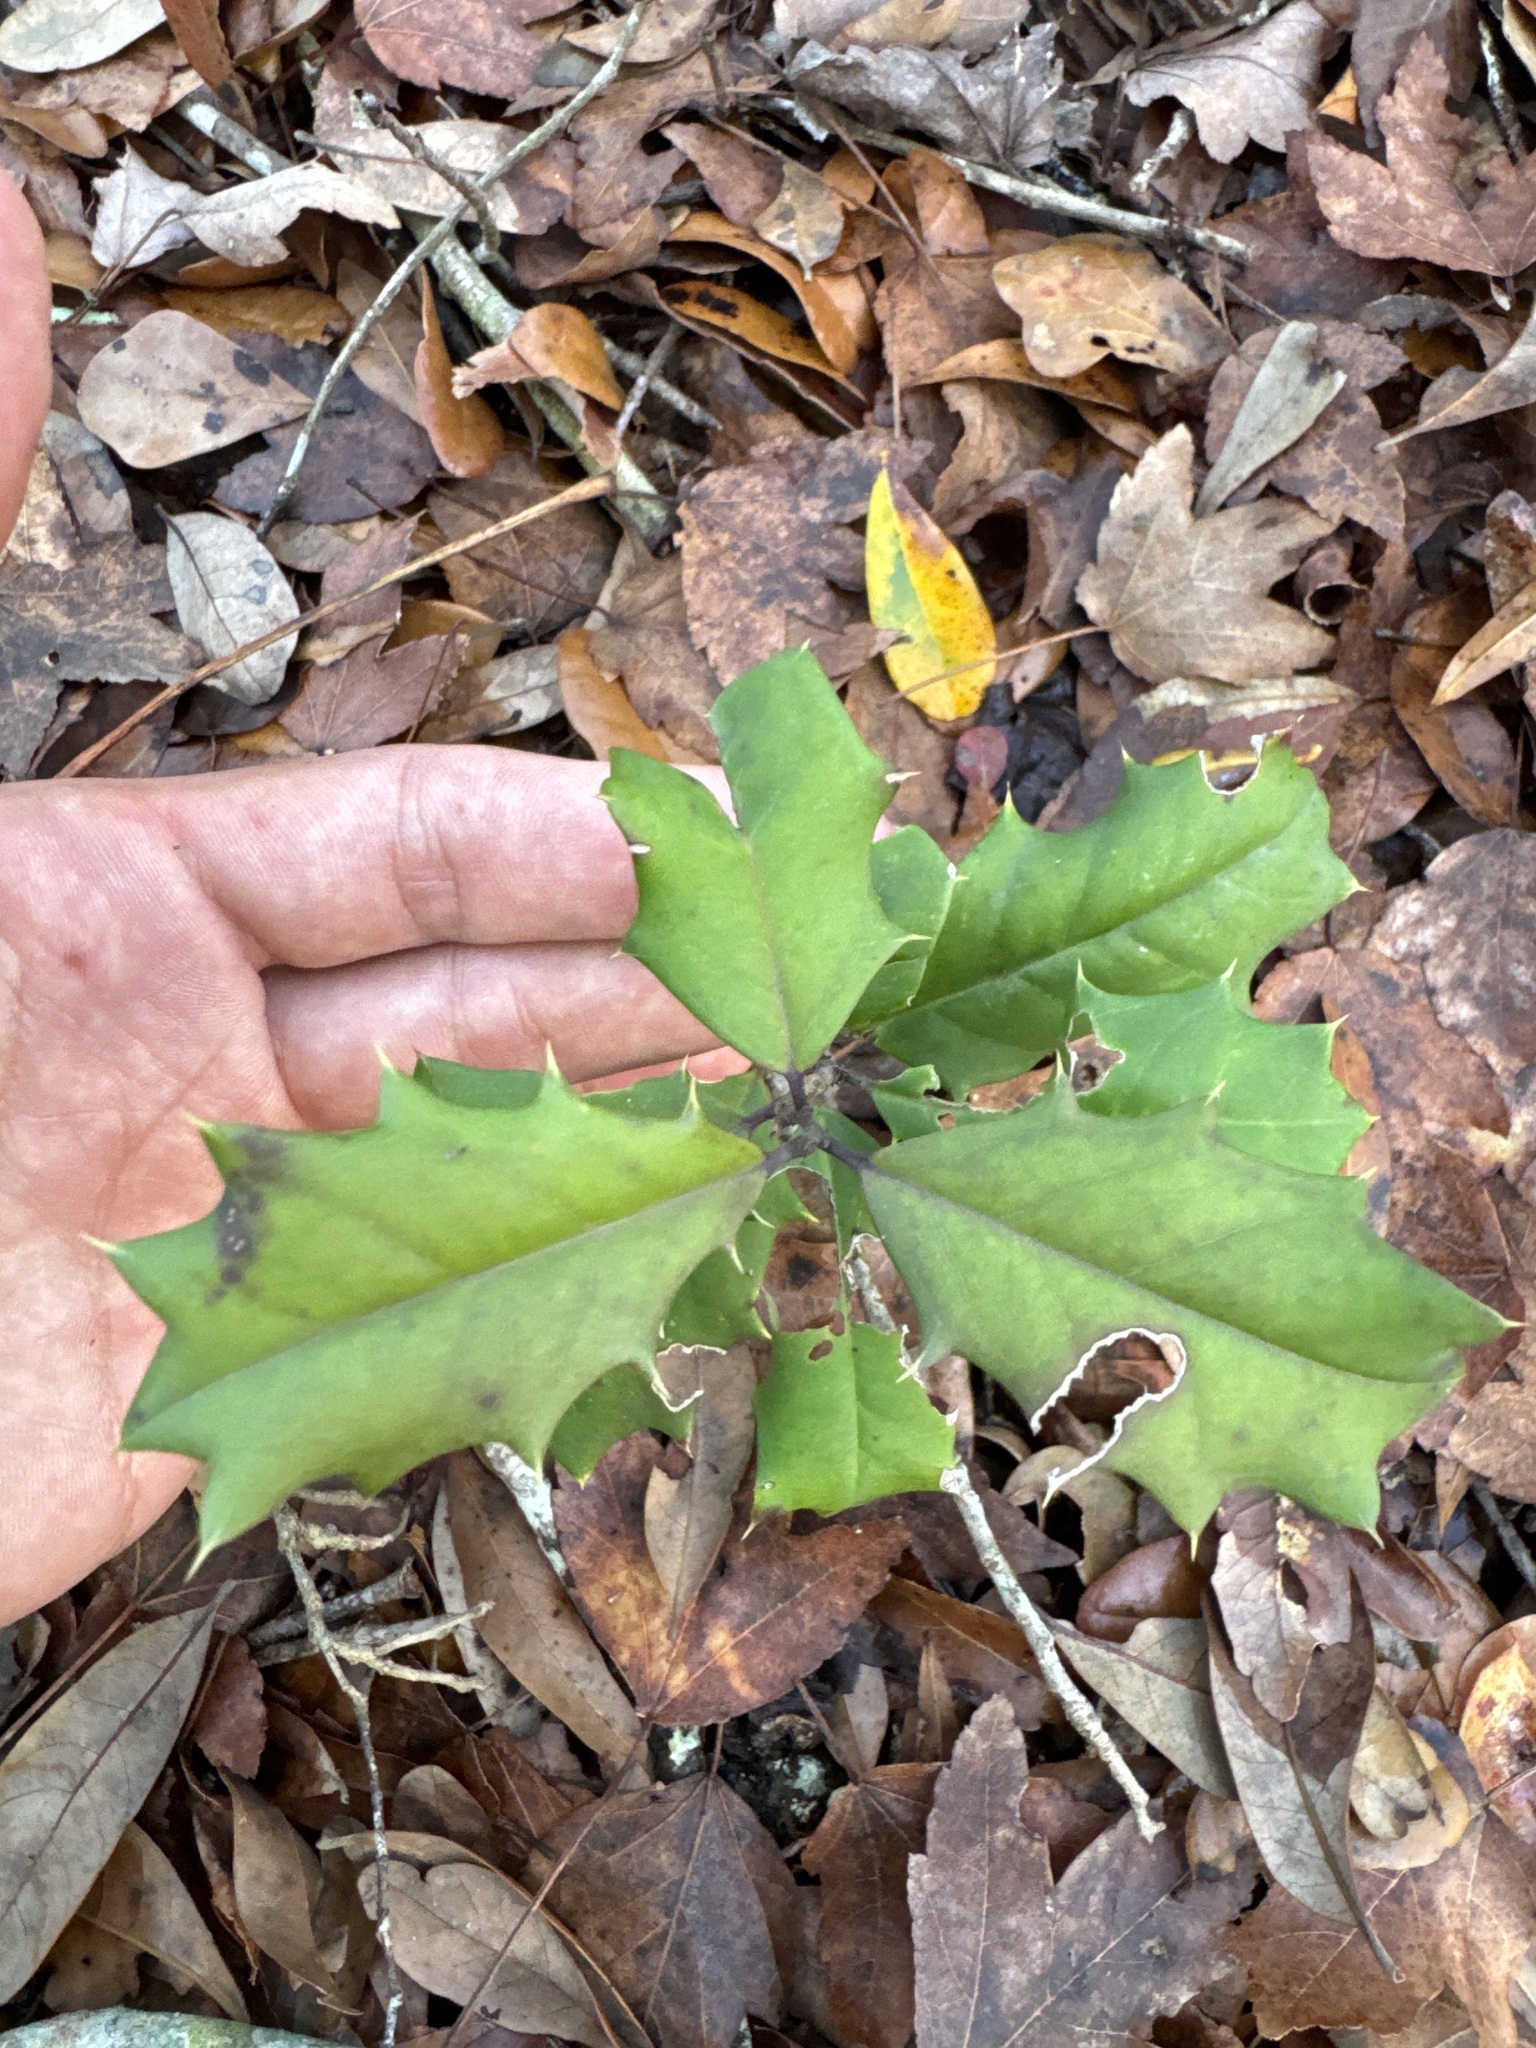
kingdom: Plantae
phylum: Tracheophyta
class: Magnoliopsida
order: Aquifoliales
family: Aquifoliaceae
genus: Ilex
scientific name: Ilex opaca
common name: American holly
